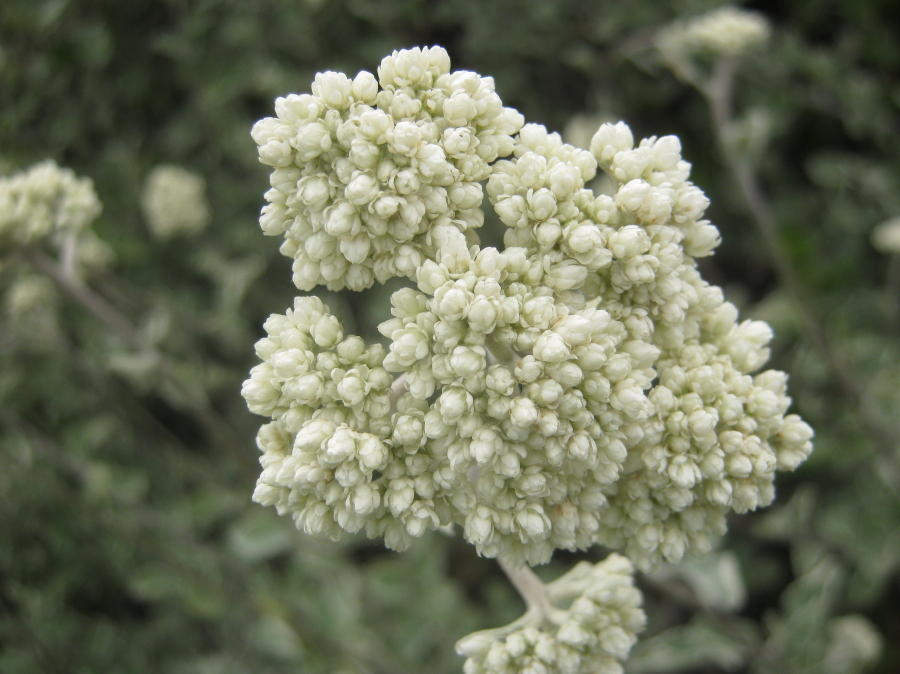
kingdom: Plantae
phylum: Tracheophyta
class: Magnoliopsida
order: Asterales
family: Asteraceae
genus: Helichrysum
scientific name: Helichrysum petiolare
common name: Licorice-plant
